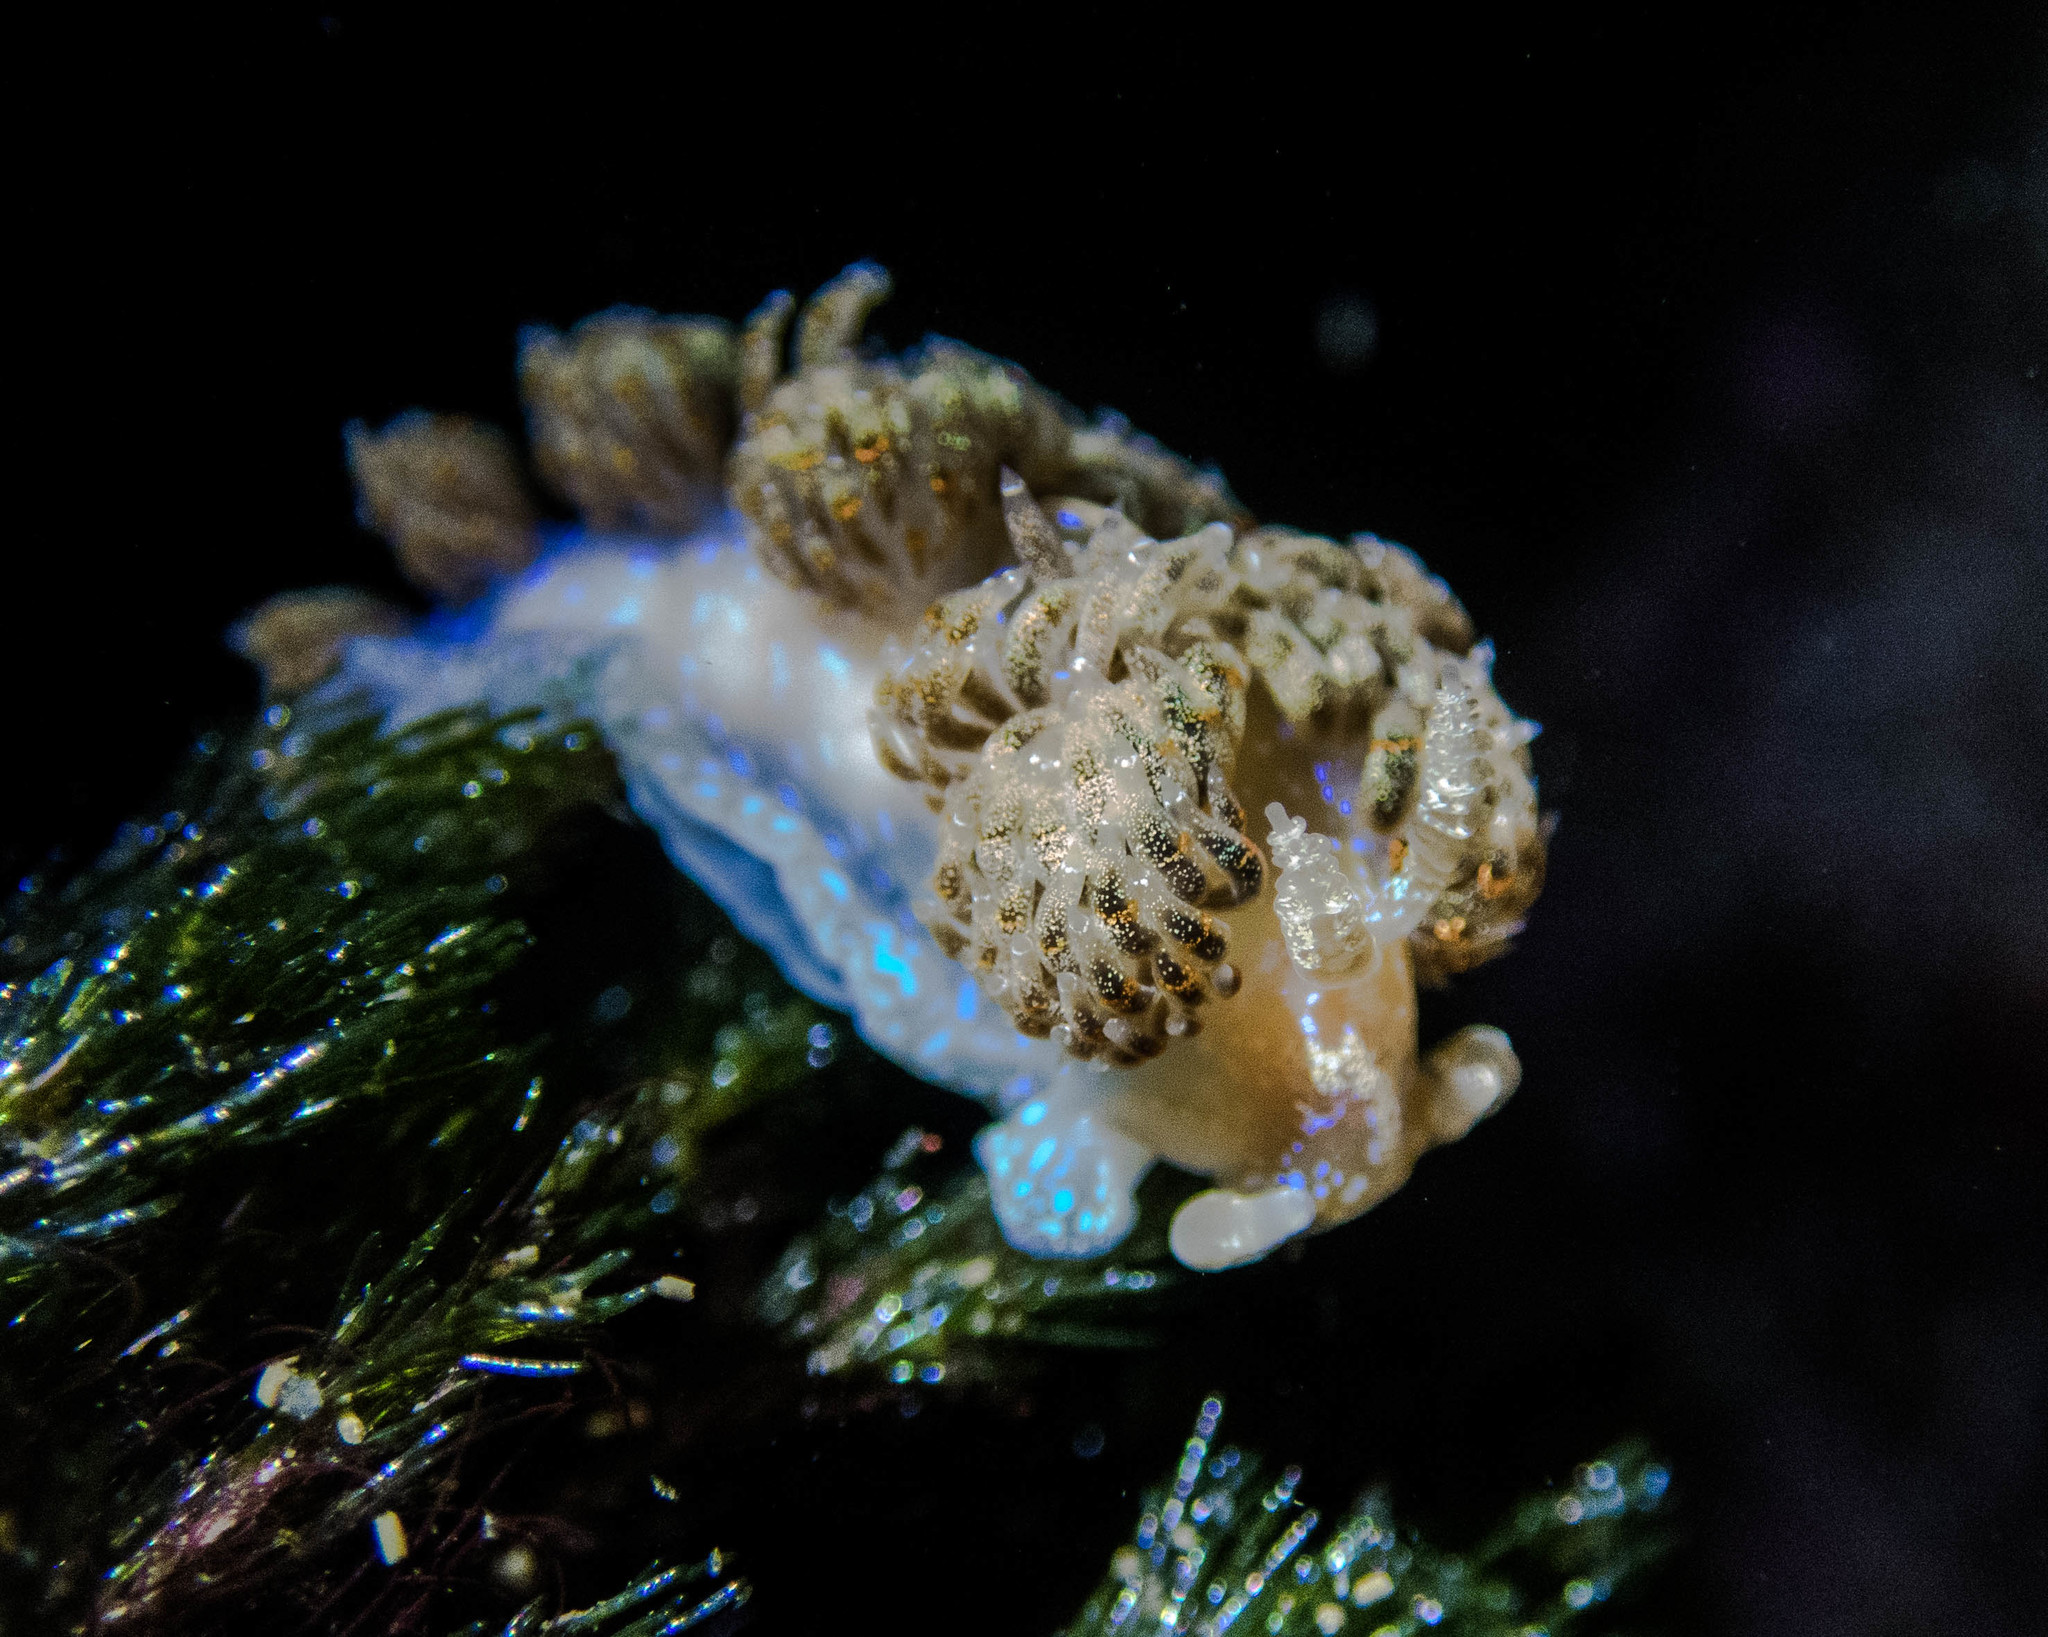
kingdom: Animalia
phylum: Mollusca
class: Gastropoda
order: Nudibranchia
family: Facelinidae
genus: Austraeolis
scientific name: Austraeolis ornata
